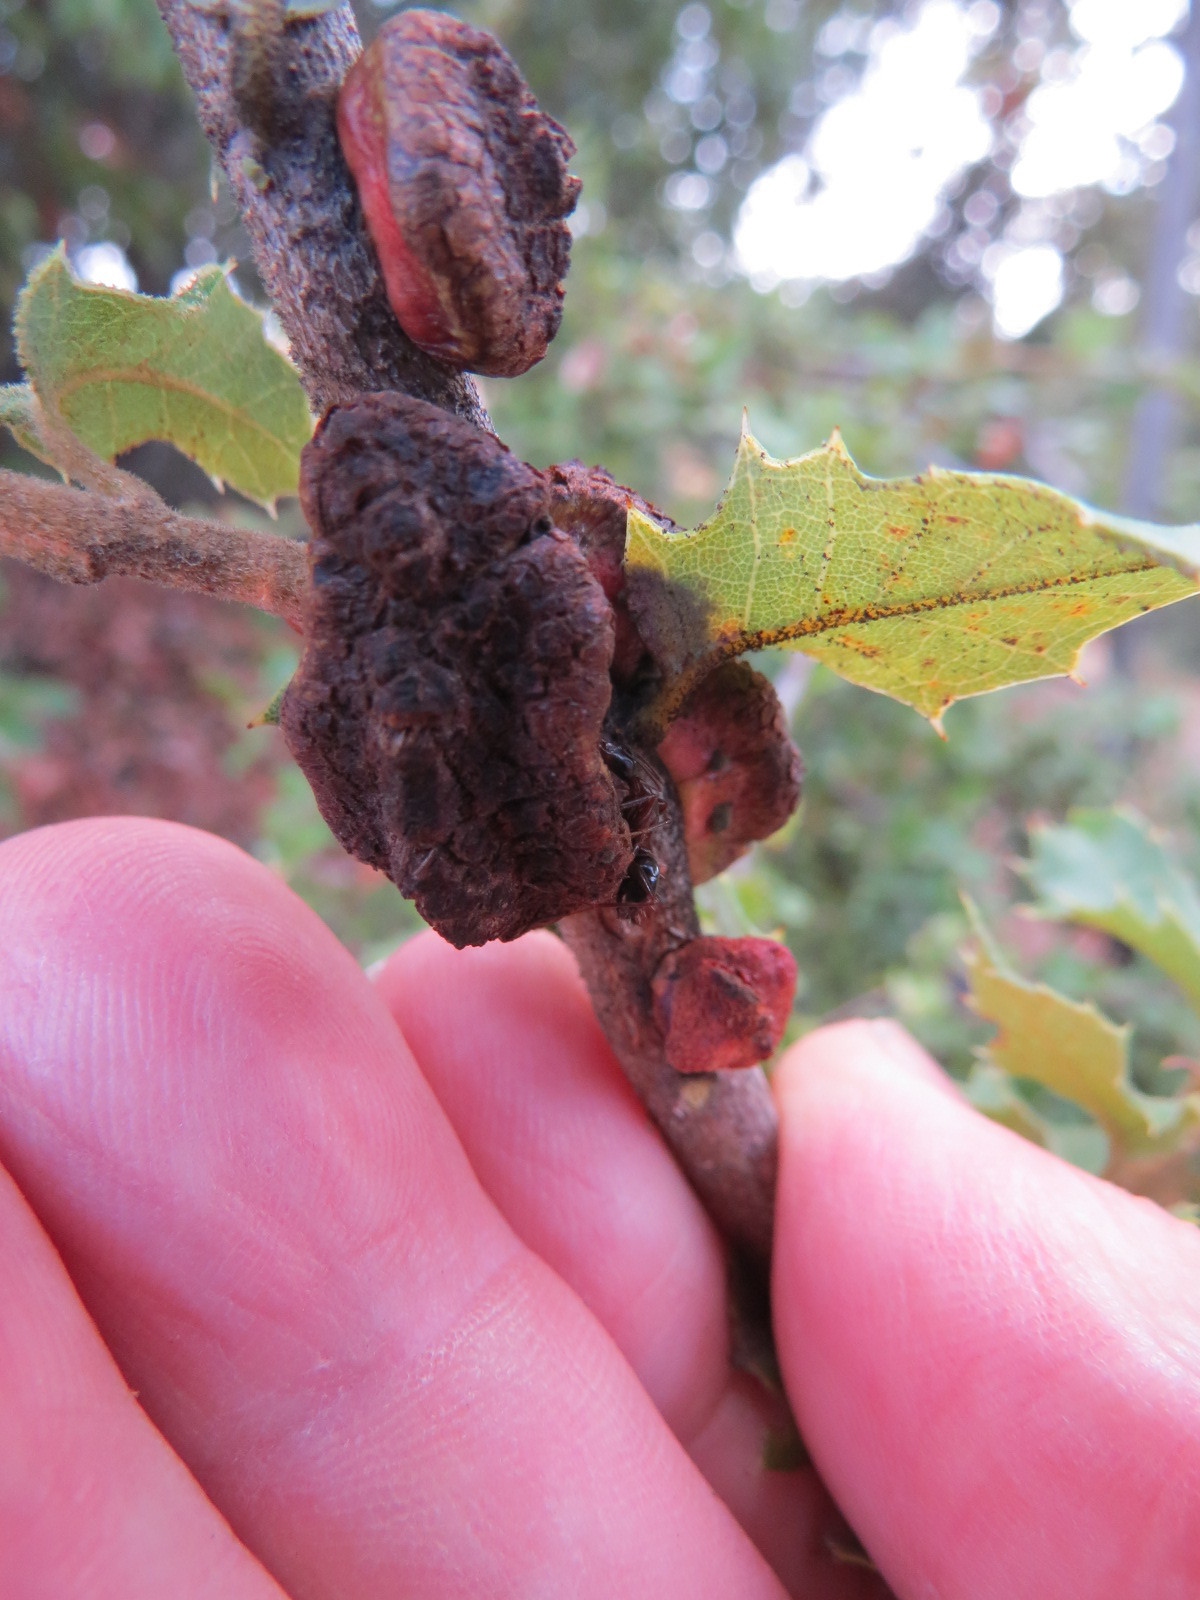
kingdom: Animalia
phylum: Arthropoda
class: Insecta
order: Hymenoptera
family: Cynipidae
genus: Disholandricus
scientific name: Disholandricus
